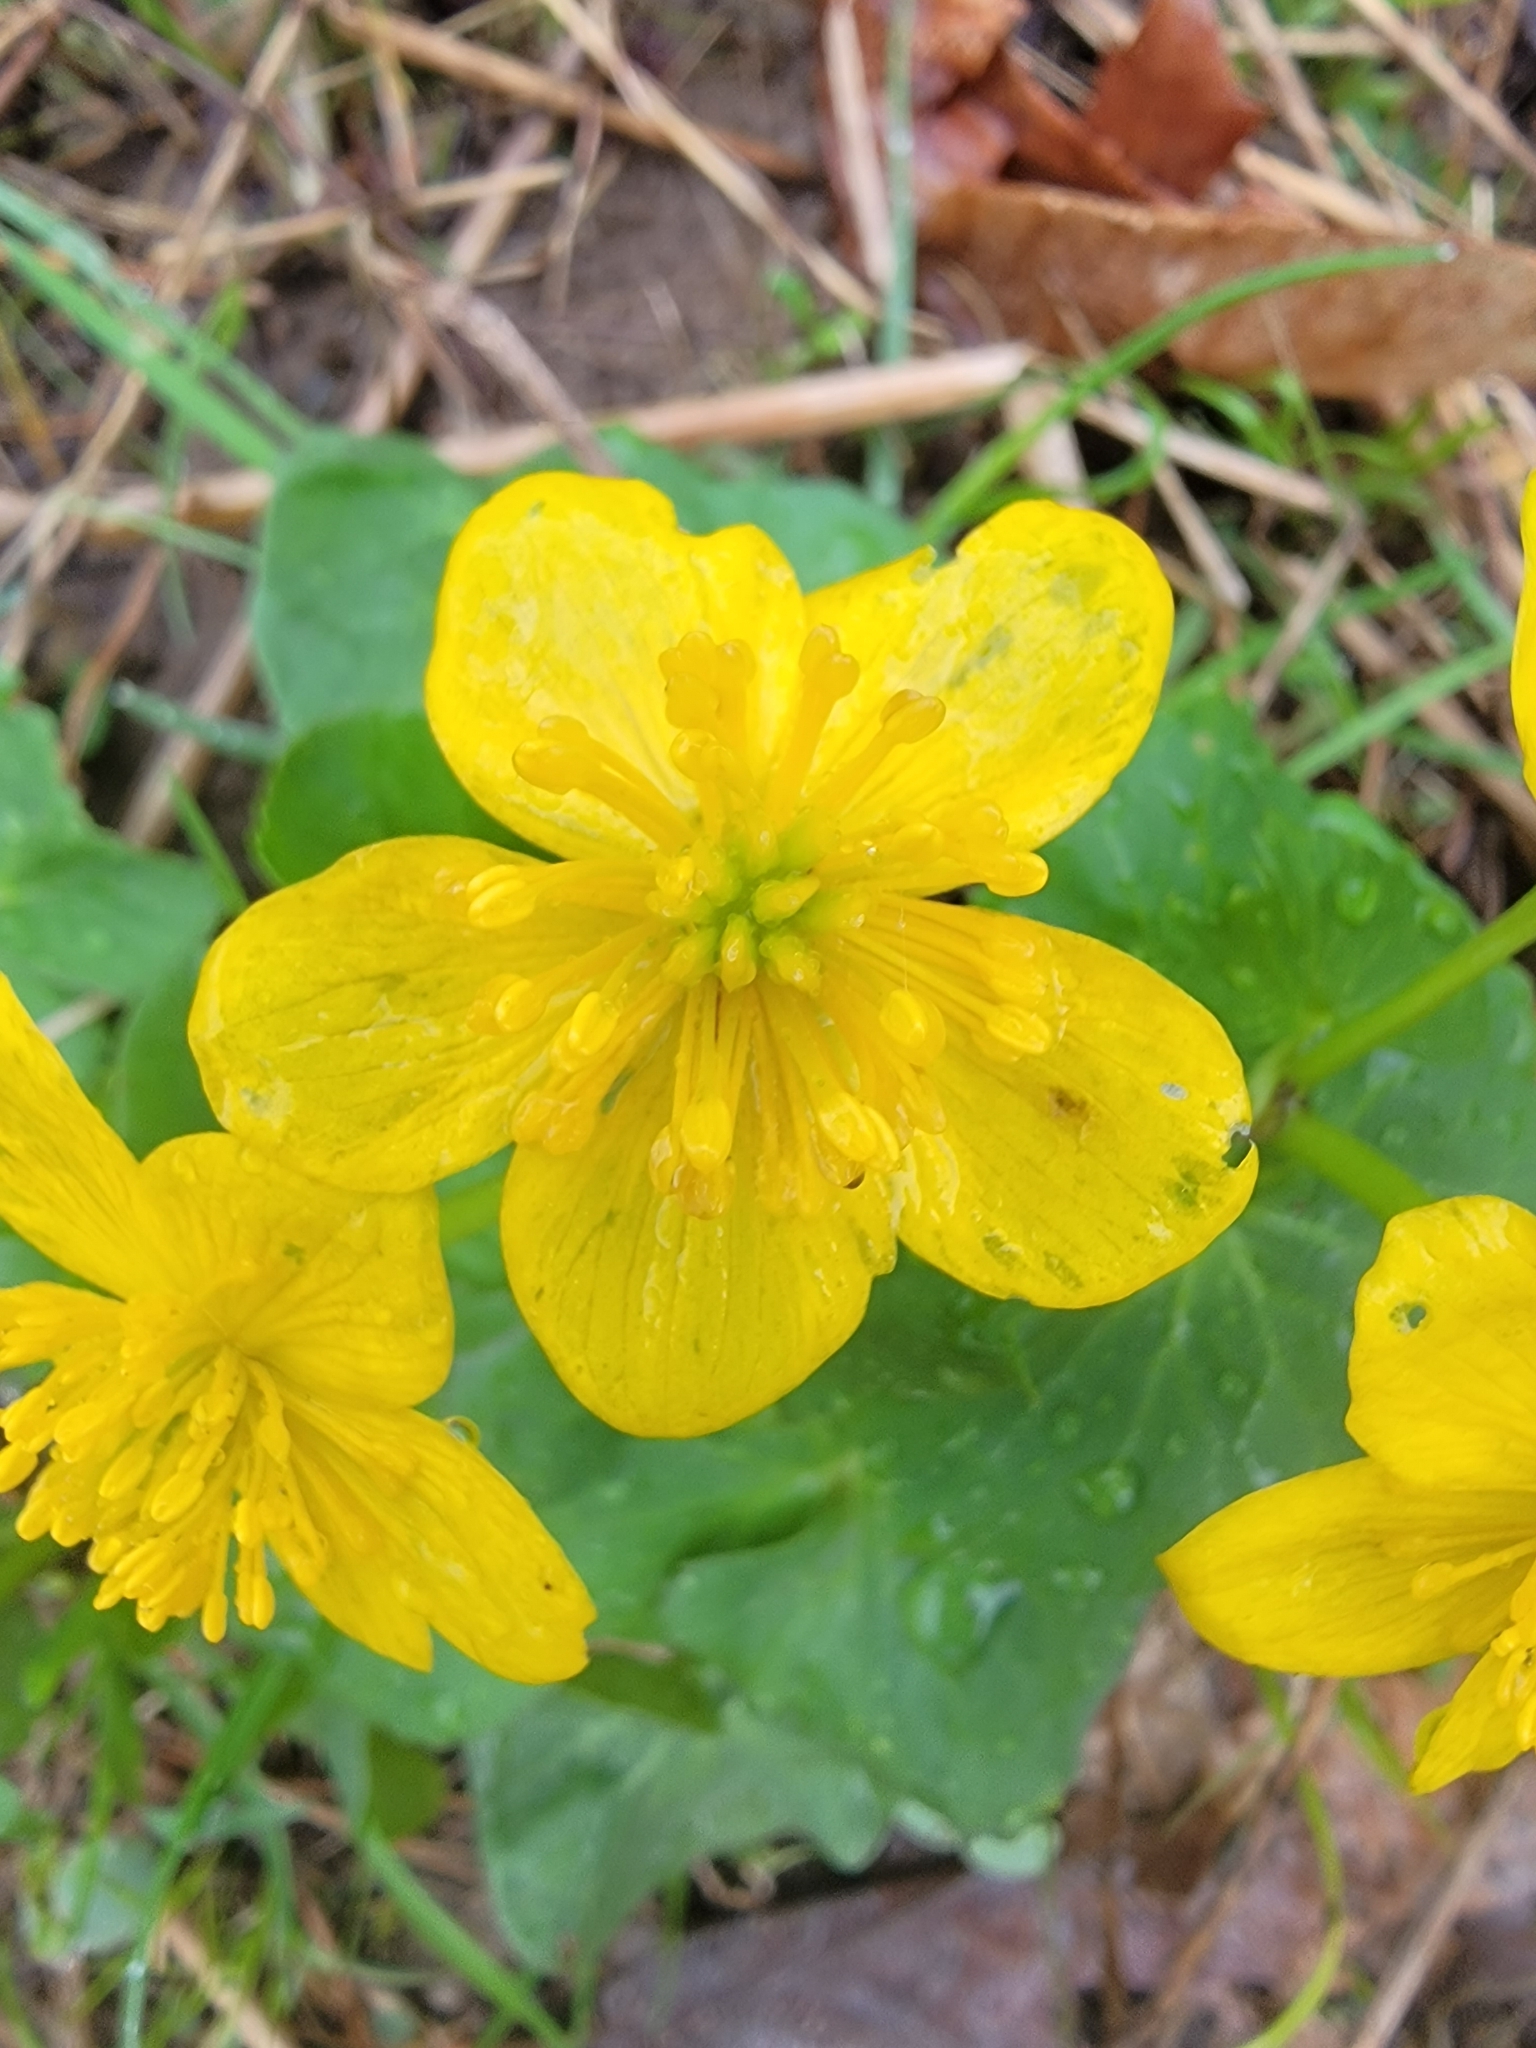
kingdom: Plantae
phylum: Tracheophyta
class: Magnoliopsida
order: Ranunculales
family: Ranunculaceae
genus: Caltha
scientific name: Caltha palustris
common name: Marsh marigold
